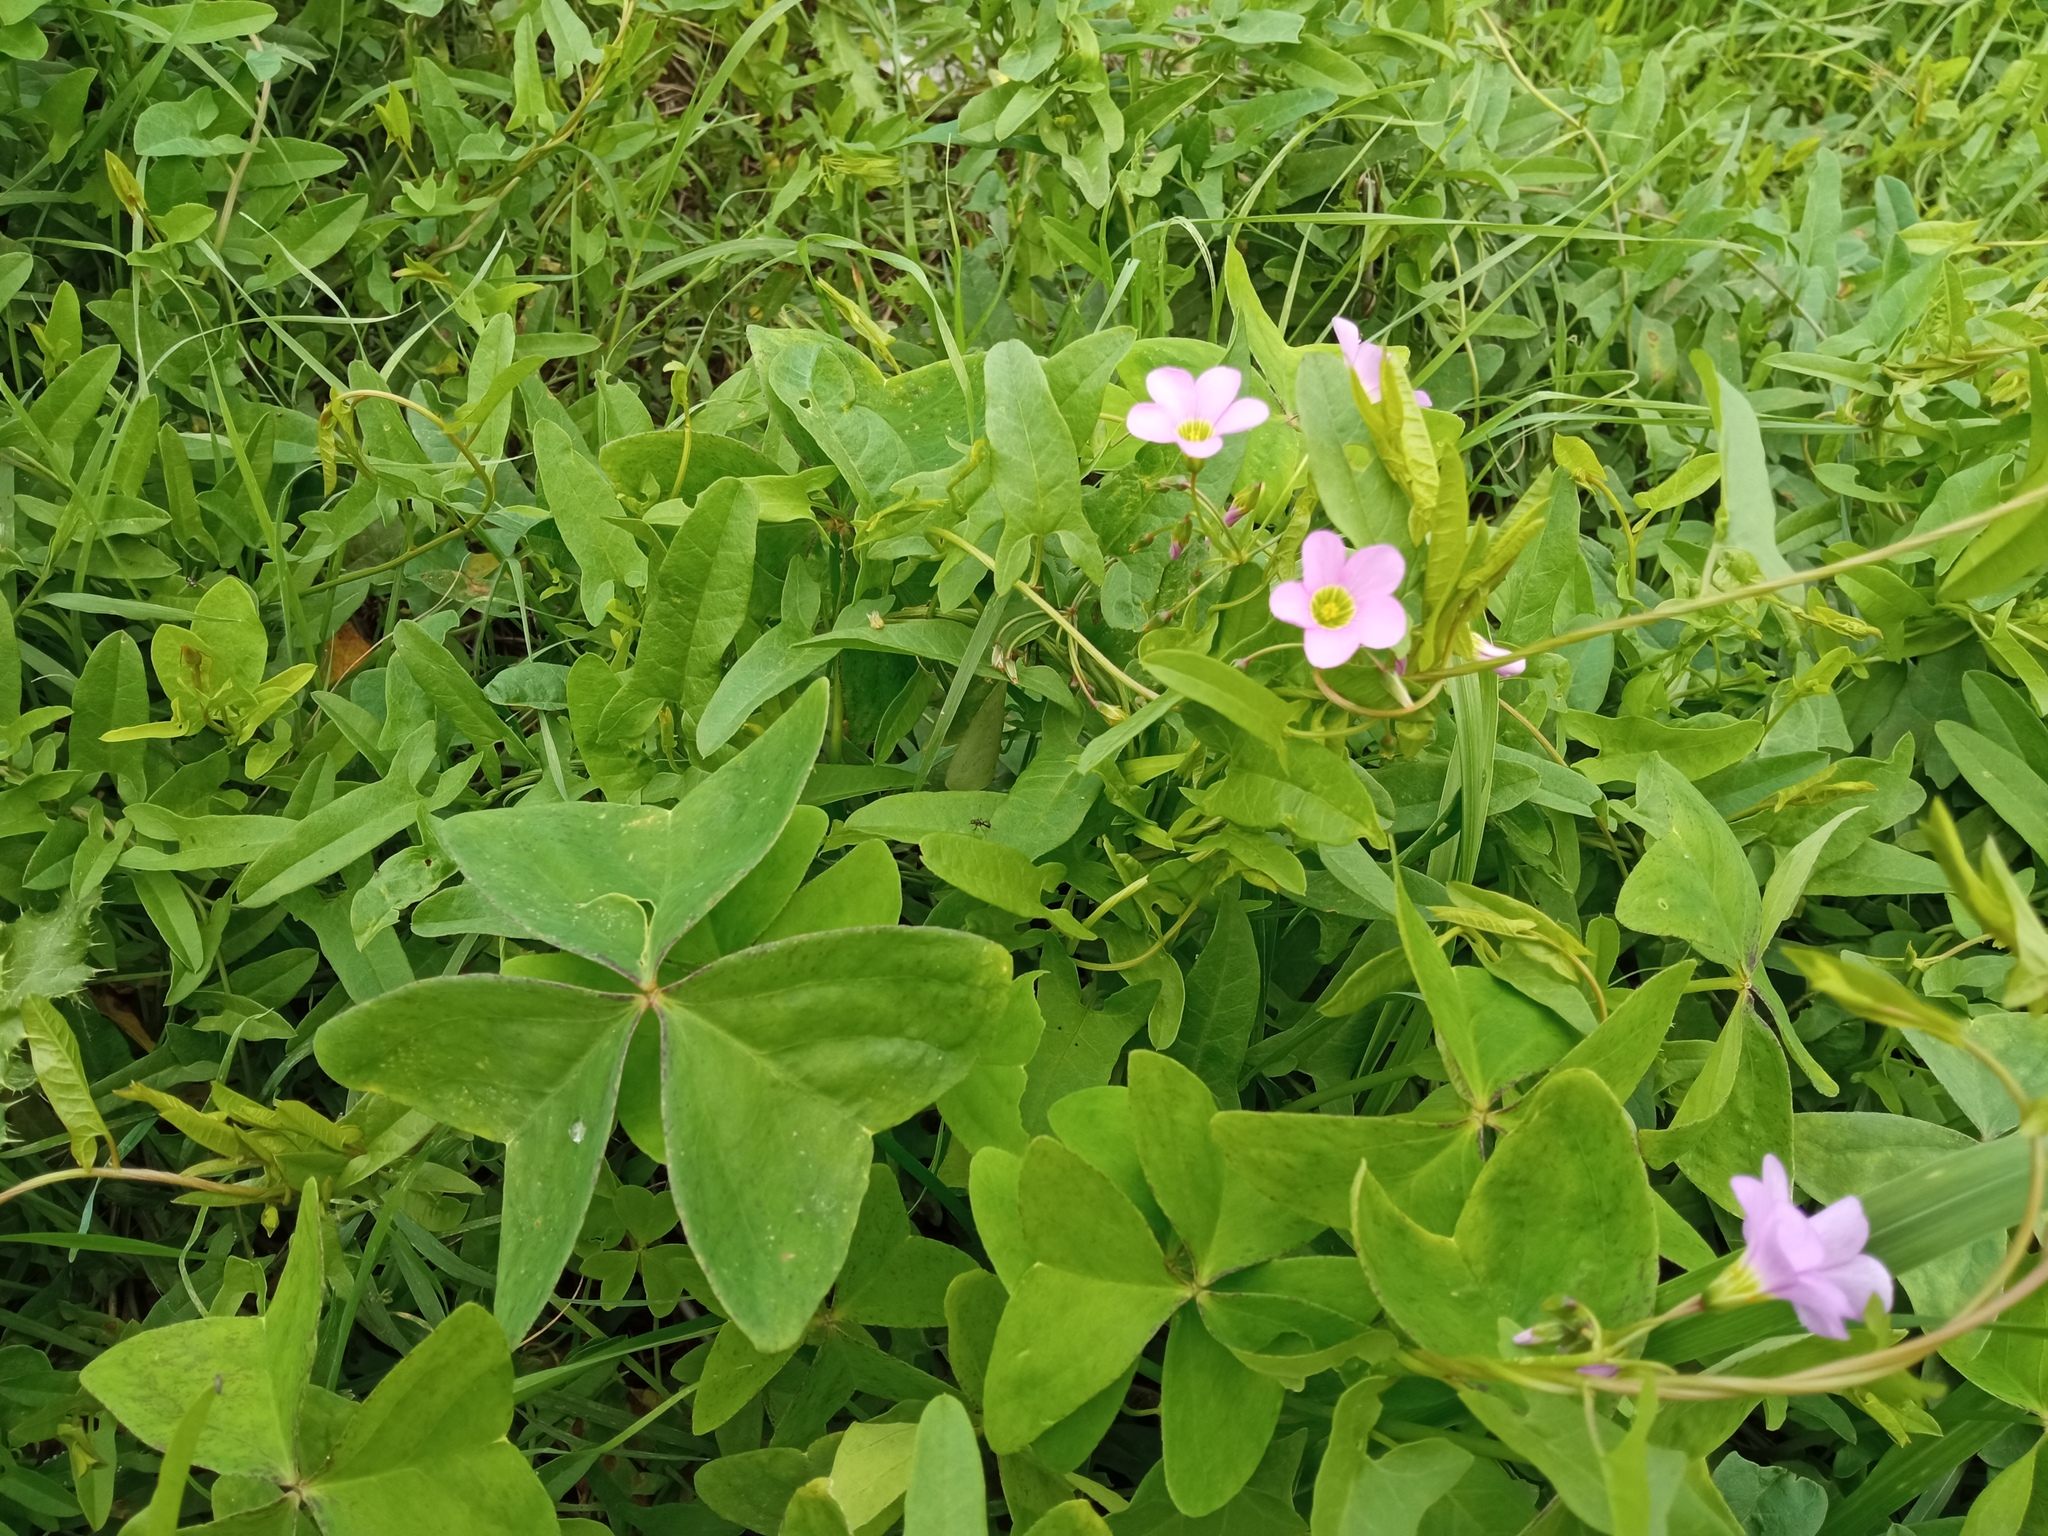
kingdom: Plantae
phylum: Tracheophyta
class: Magnoliopsida
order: Oxalidales
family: Oxalidaceae
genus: Oxalis
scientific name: Oxalis latifolia
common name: Garden pink-sorrel
